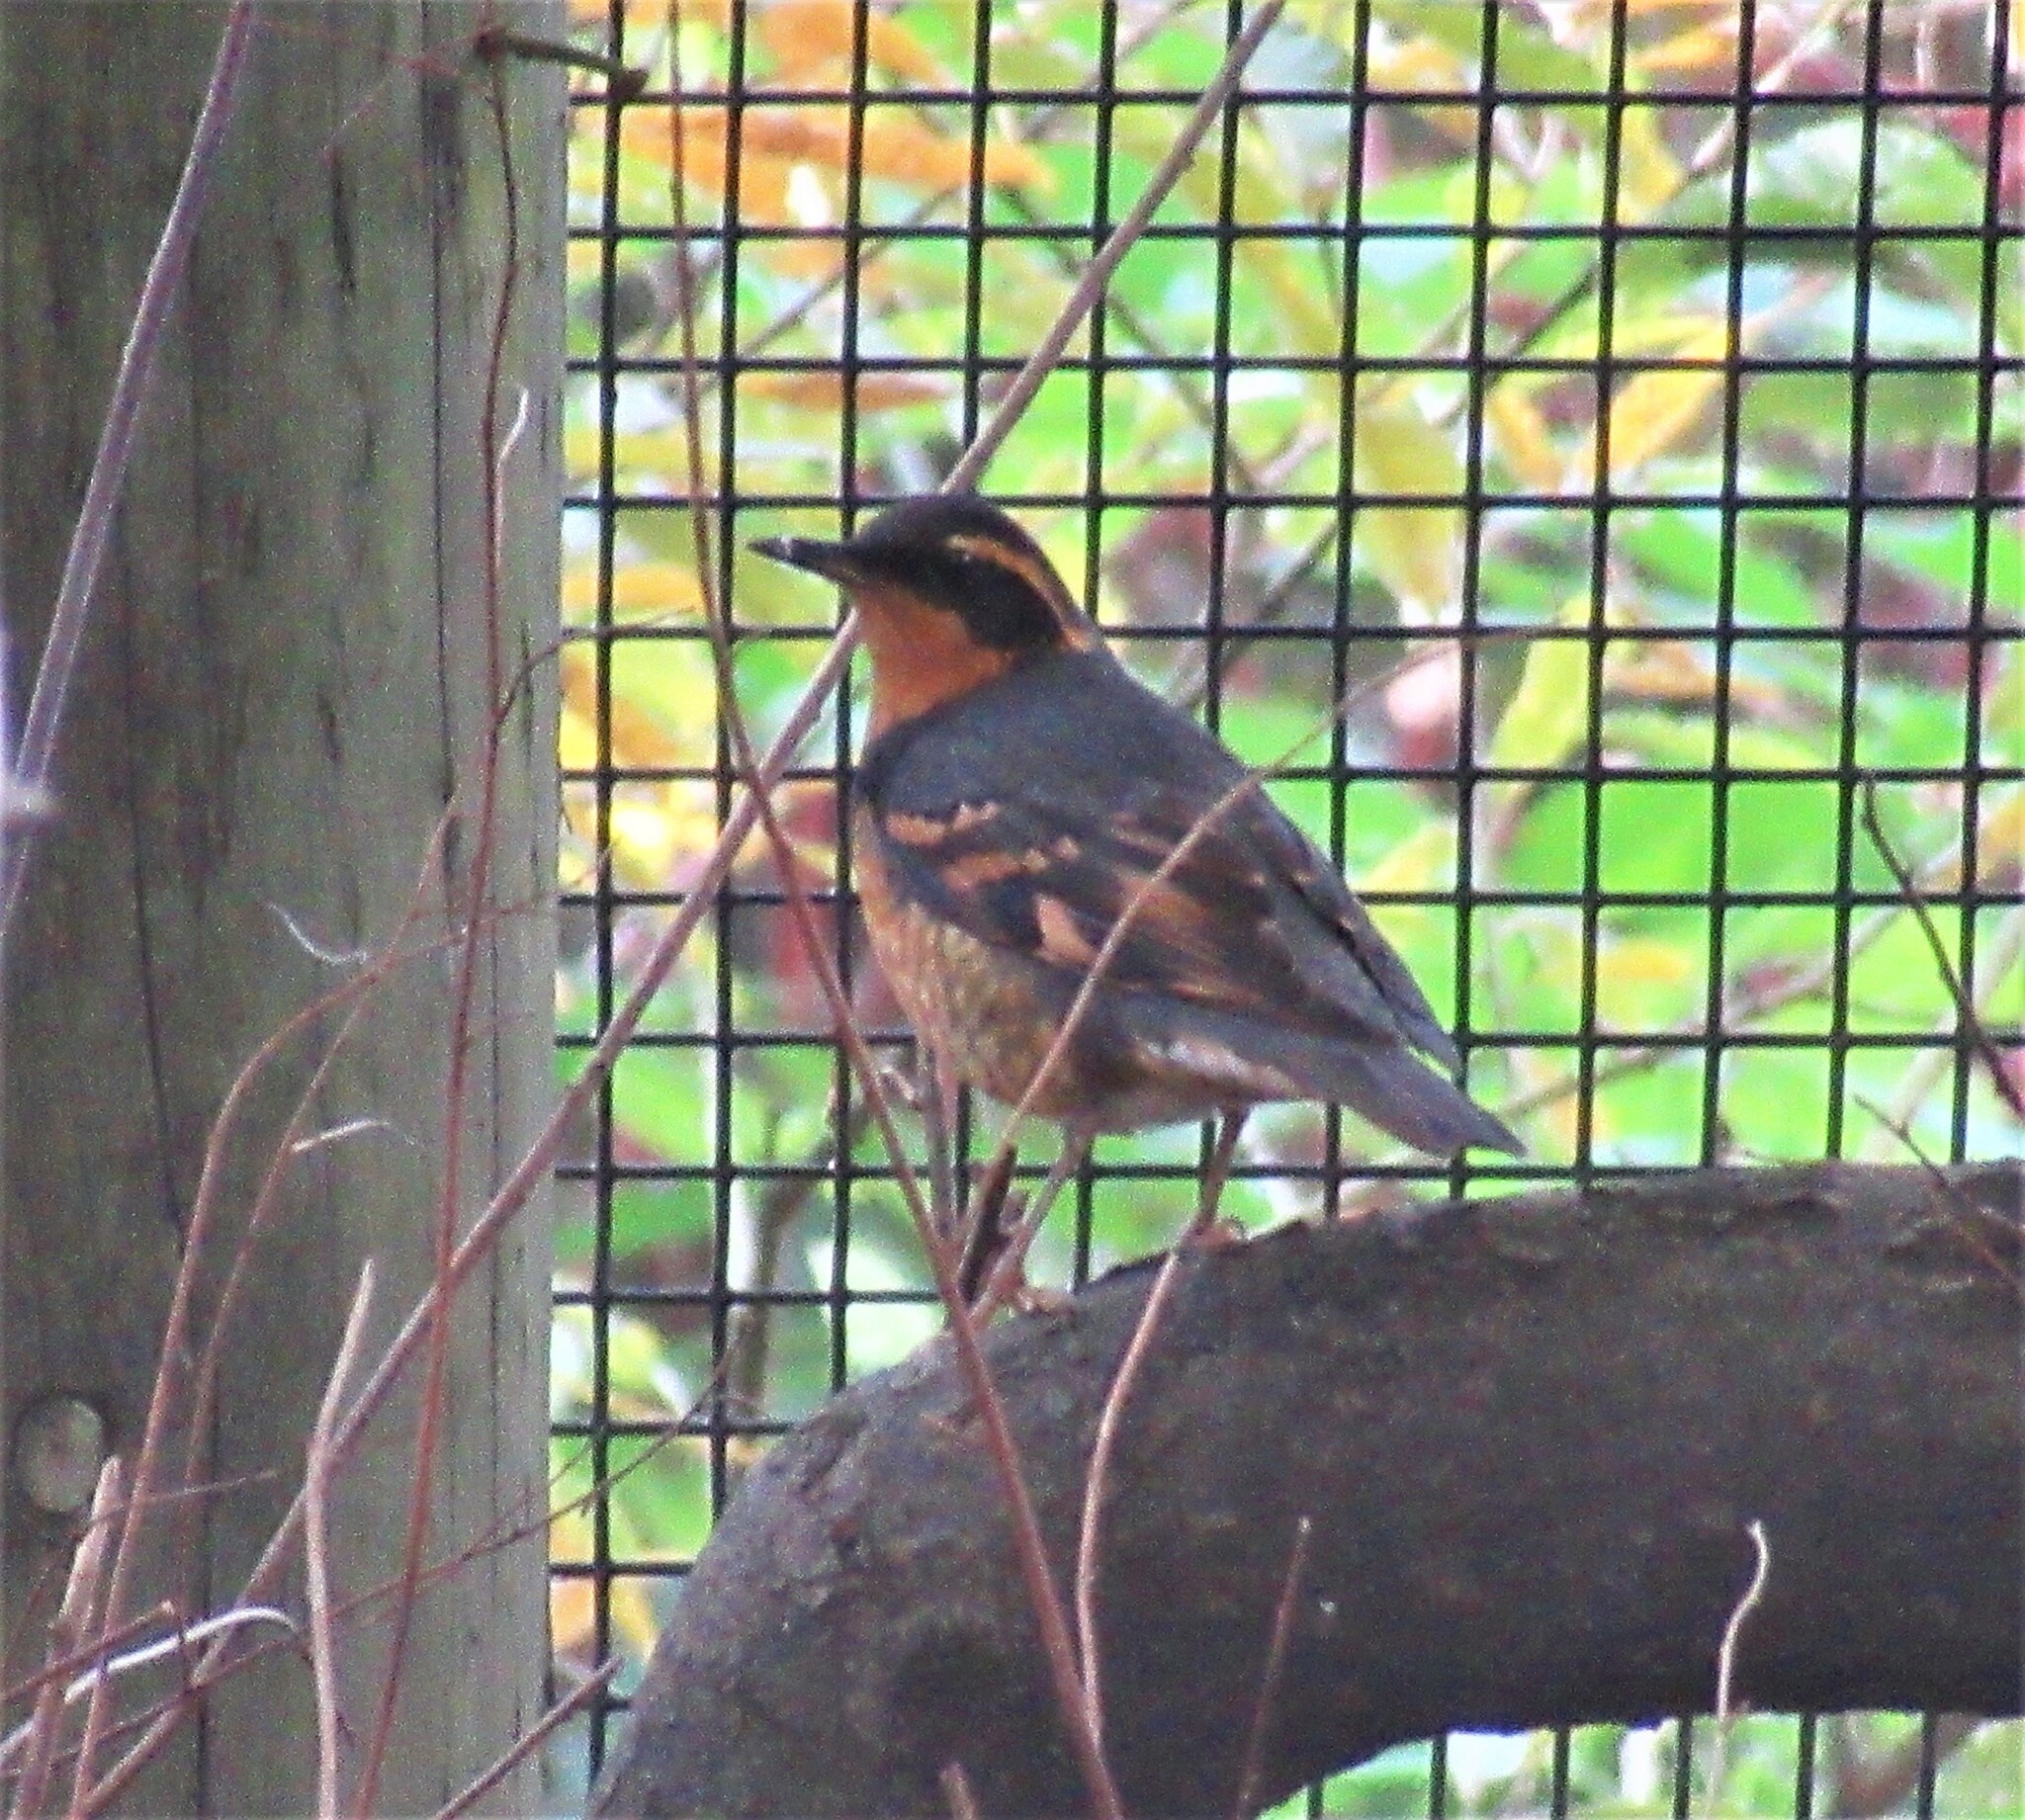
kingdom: Animalia
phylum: Chordata
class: Aves
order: Passeriformes
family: Turdidae
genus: Ixoreus
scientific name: Ixoreus naevius
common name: Varied thrush
